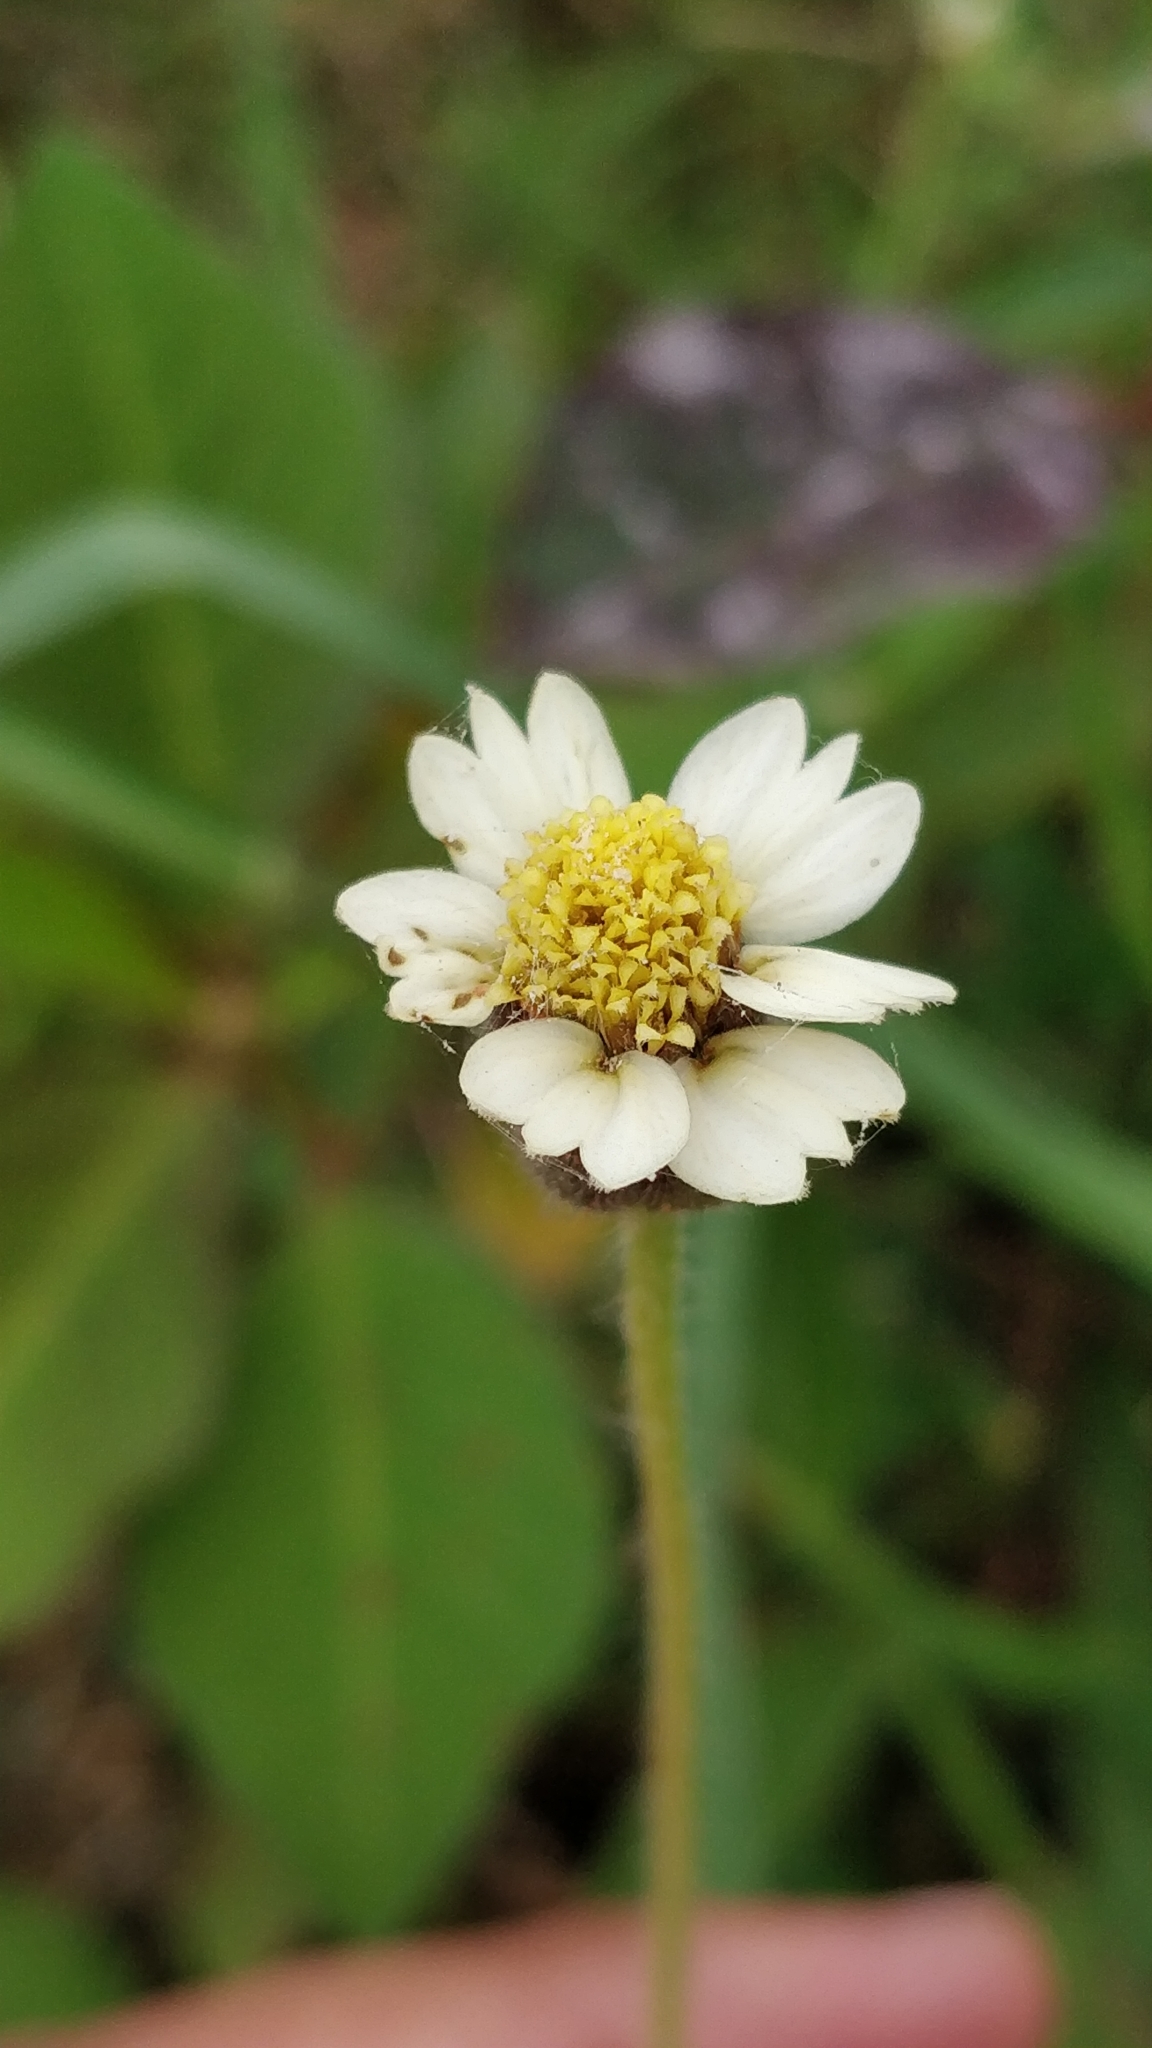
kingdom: Plantae
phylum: Tracheophyta
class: Magnoliopsida
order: Asterales
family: Asteraceae
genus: Tridax
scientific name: Tridax procumbens
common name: Coatbuttons
